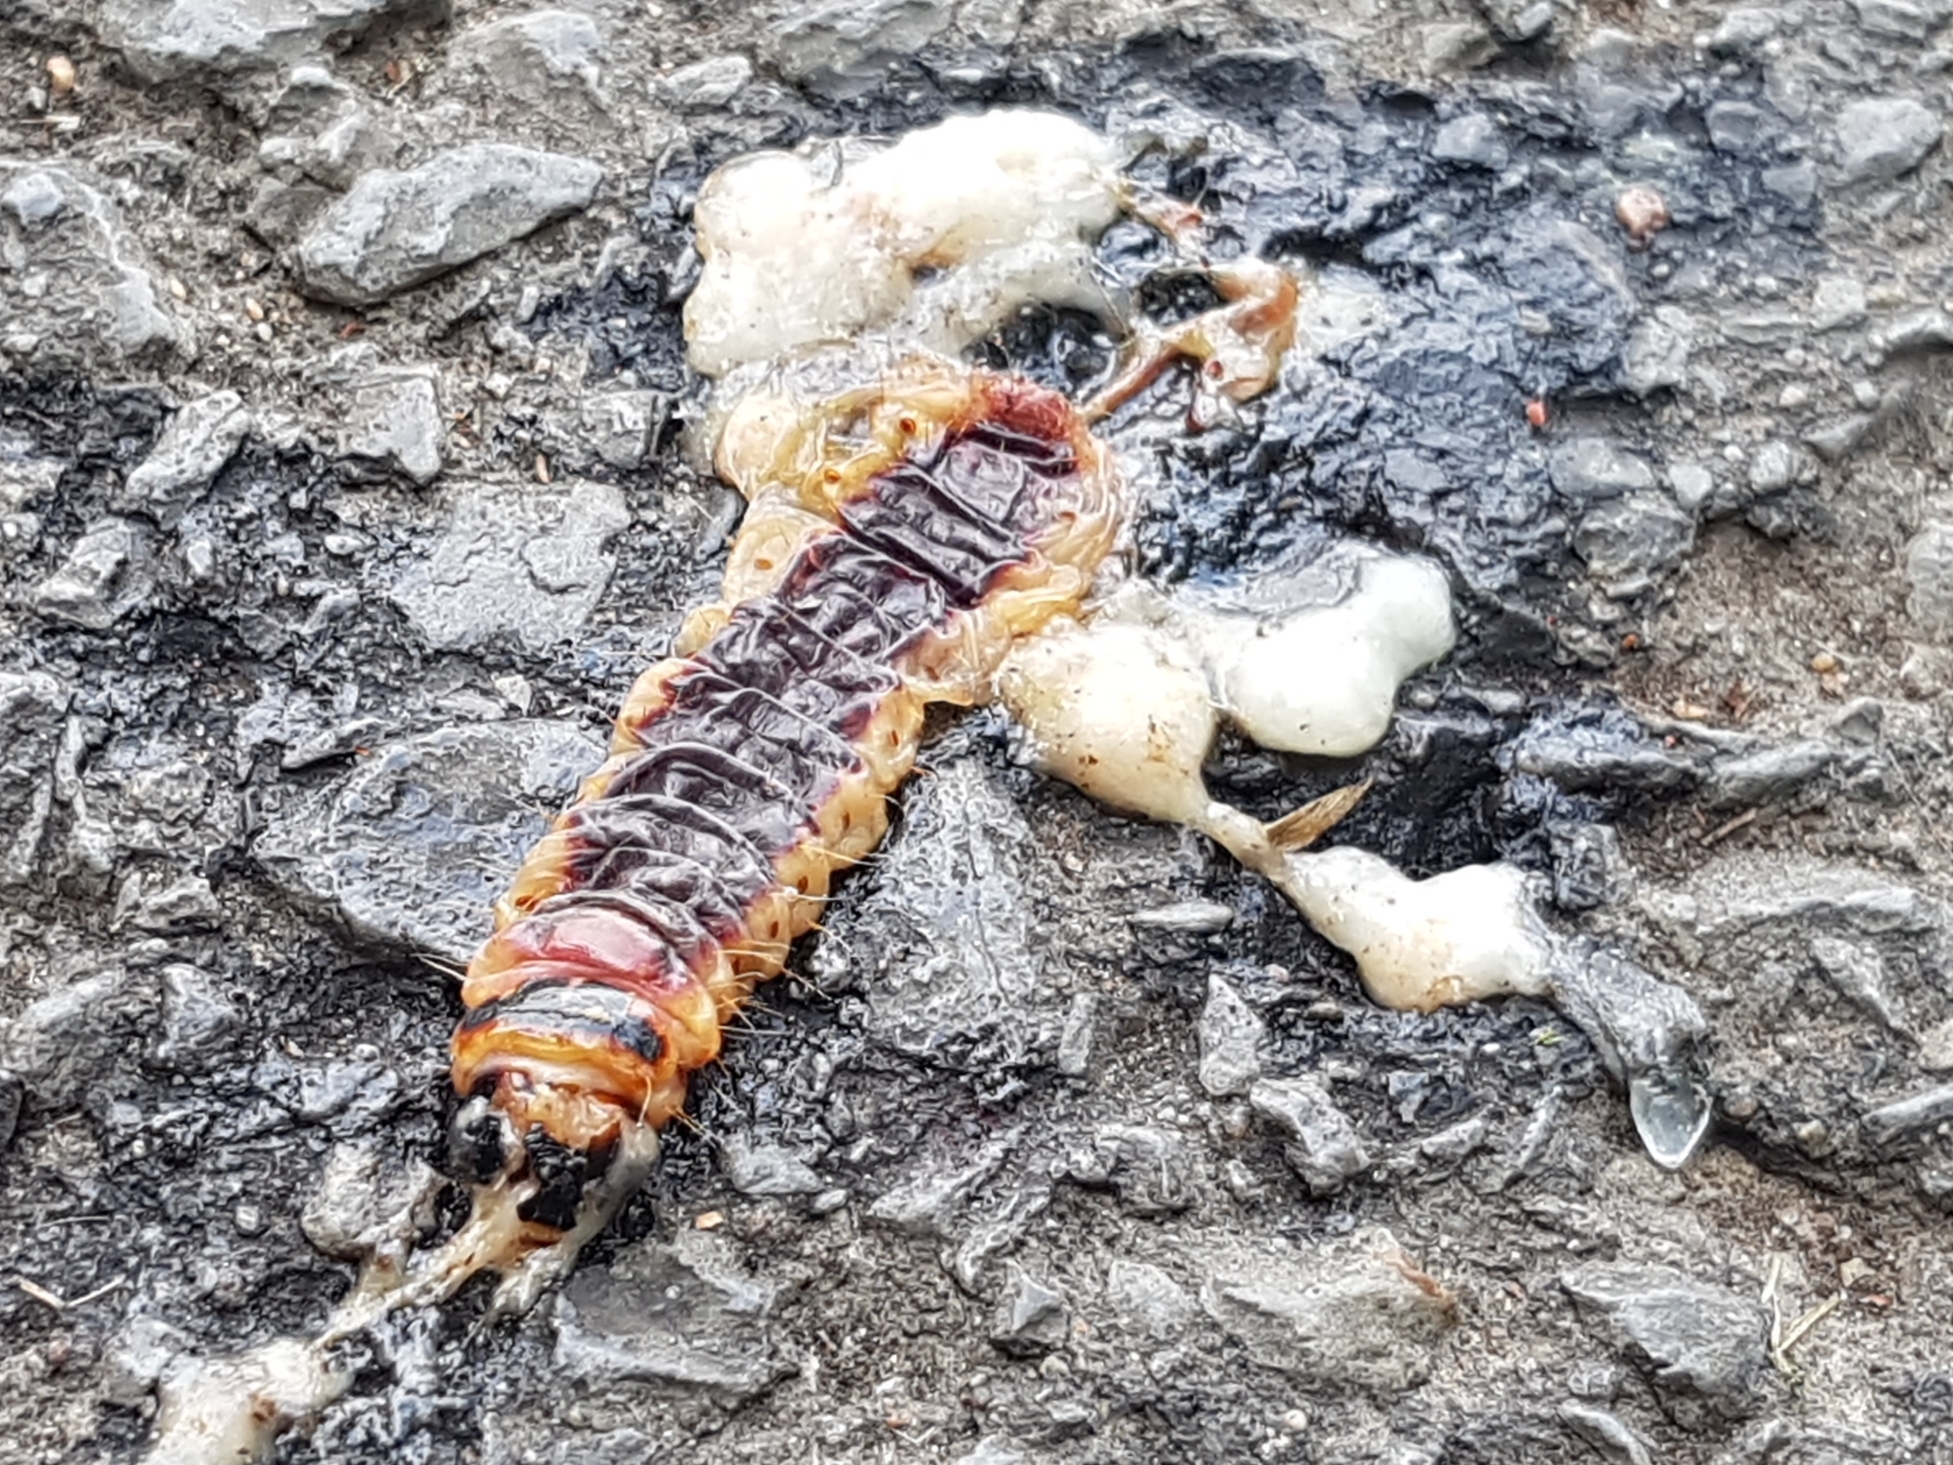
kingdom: Animalia
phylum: Arthropoda
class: Insecta
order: Lepidoptera
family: Cossidae
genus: Cossus
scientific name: Cossus cossus
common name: Goat moth
